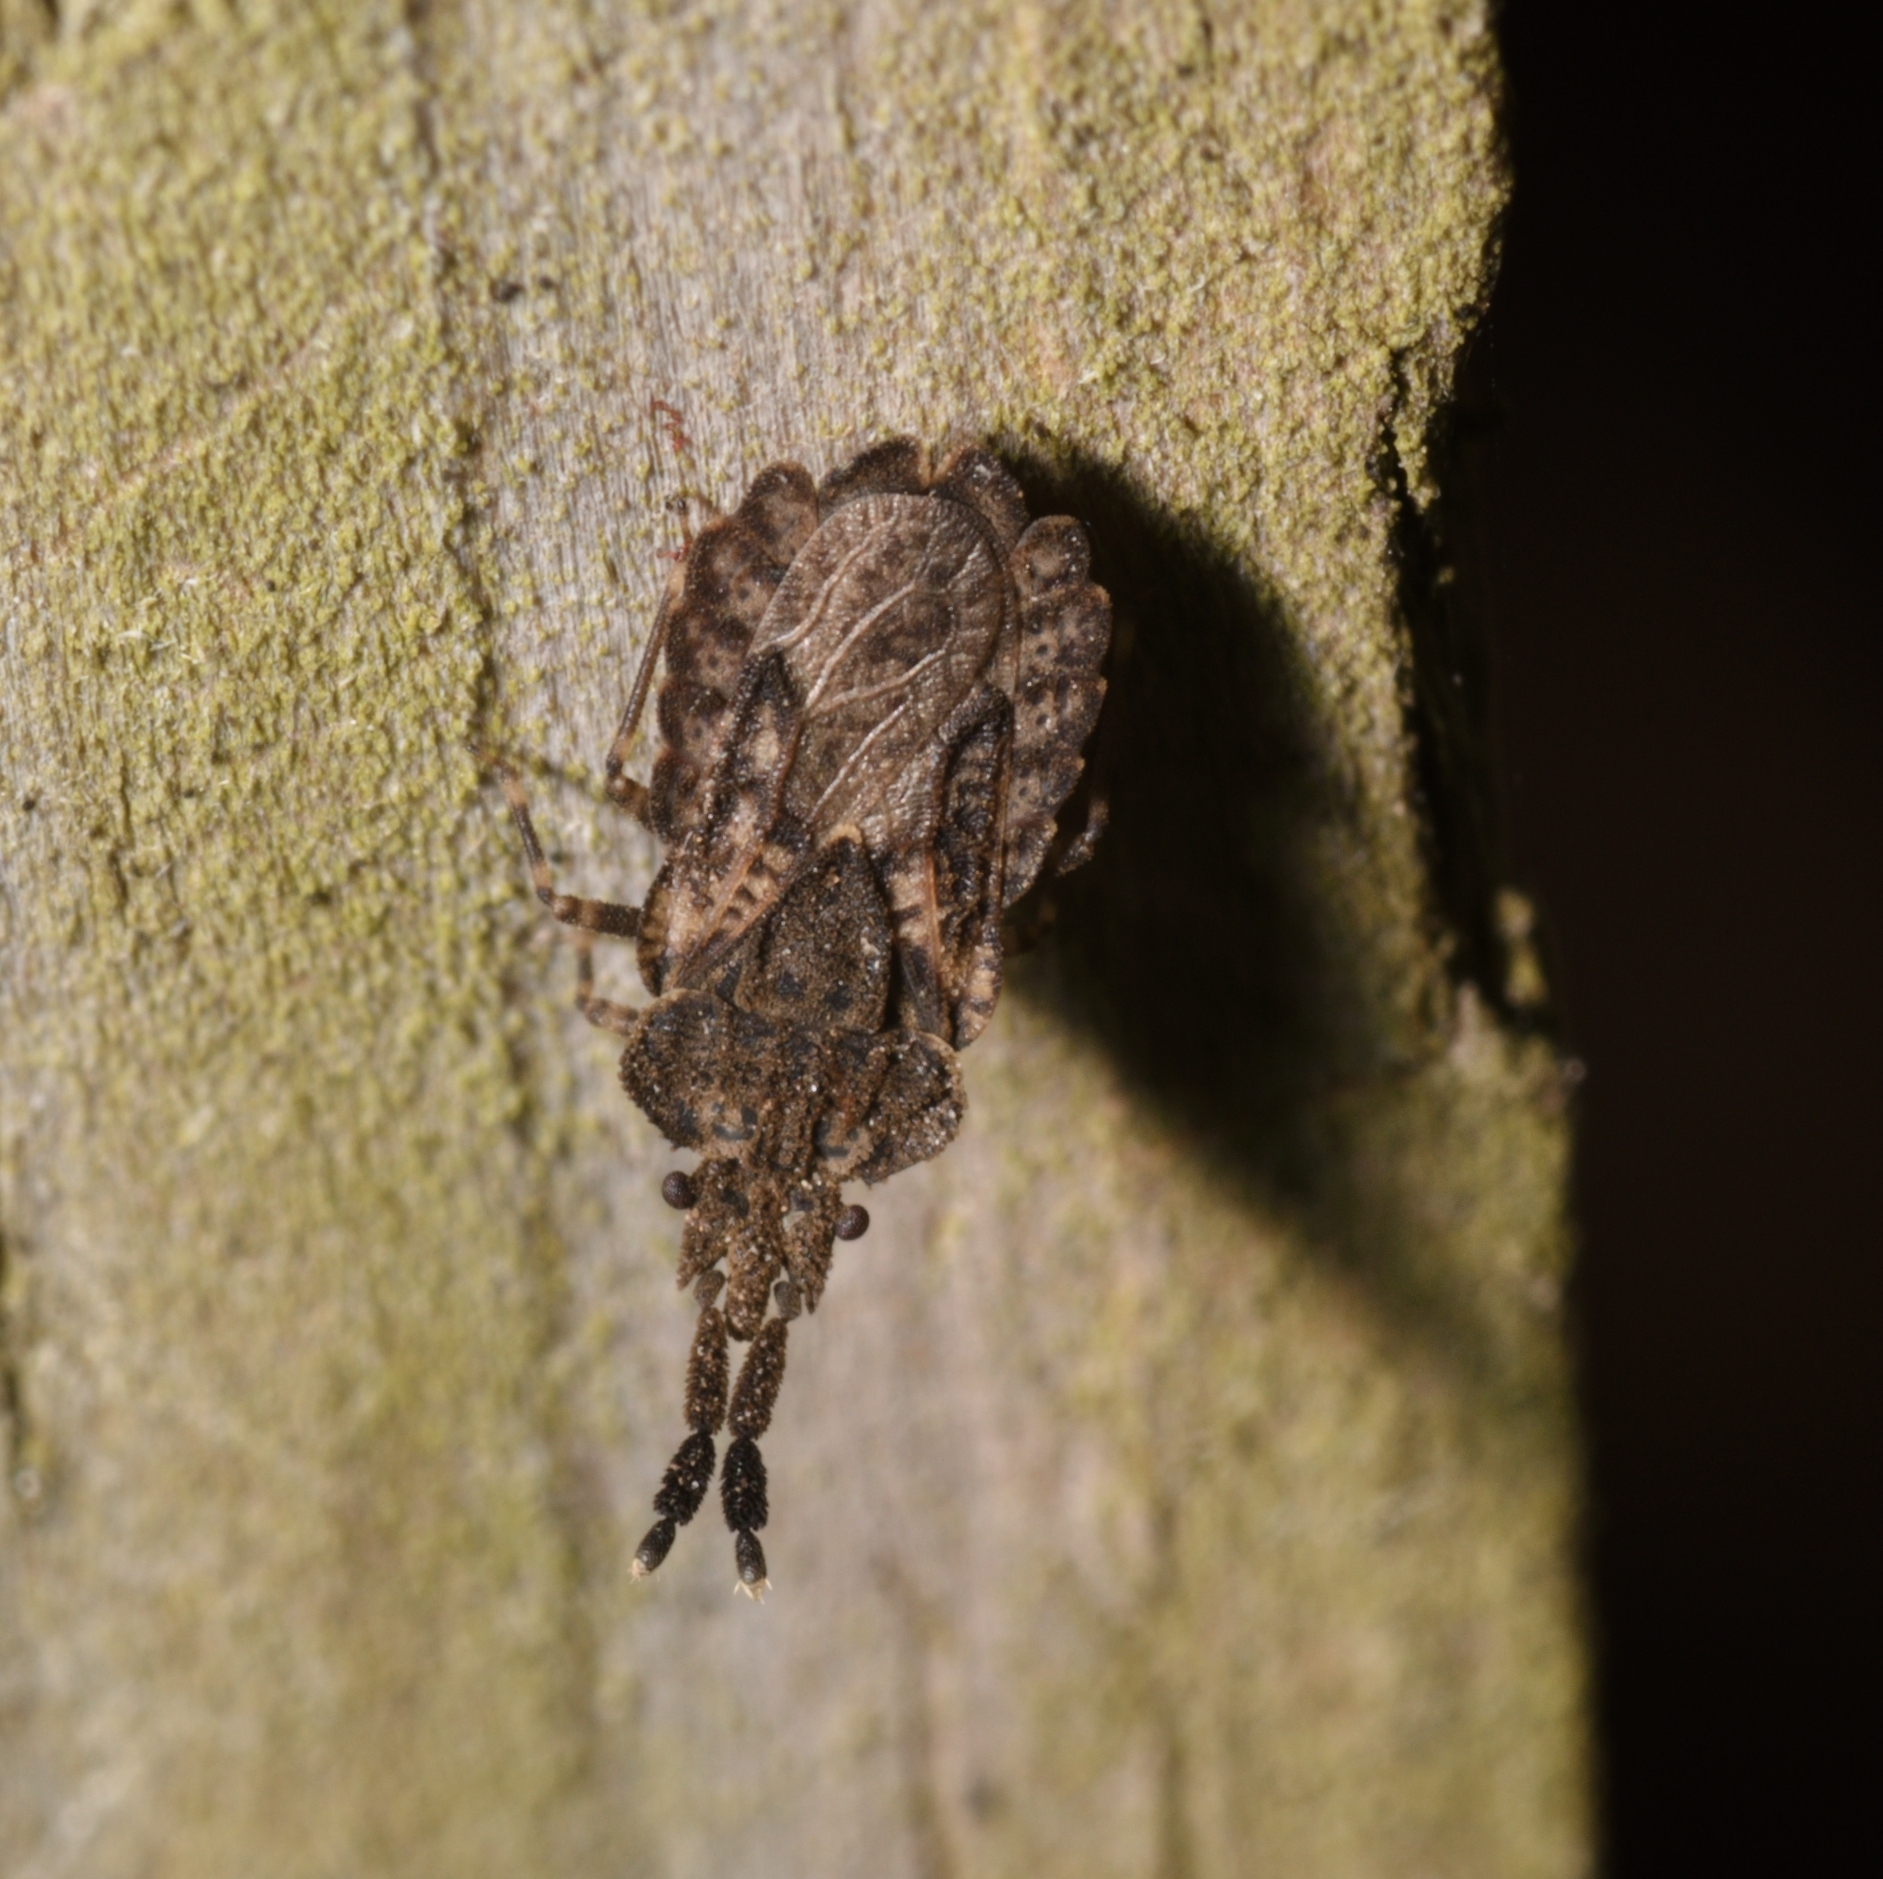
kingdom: Animalia
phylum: Arthropoda
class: Insecta
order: Hemiptera
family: Aradidae
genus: Aradus
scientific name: Aradus robustus
